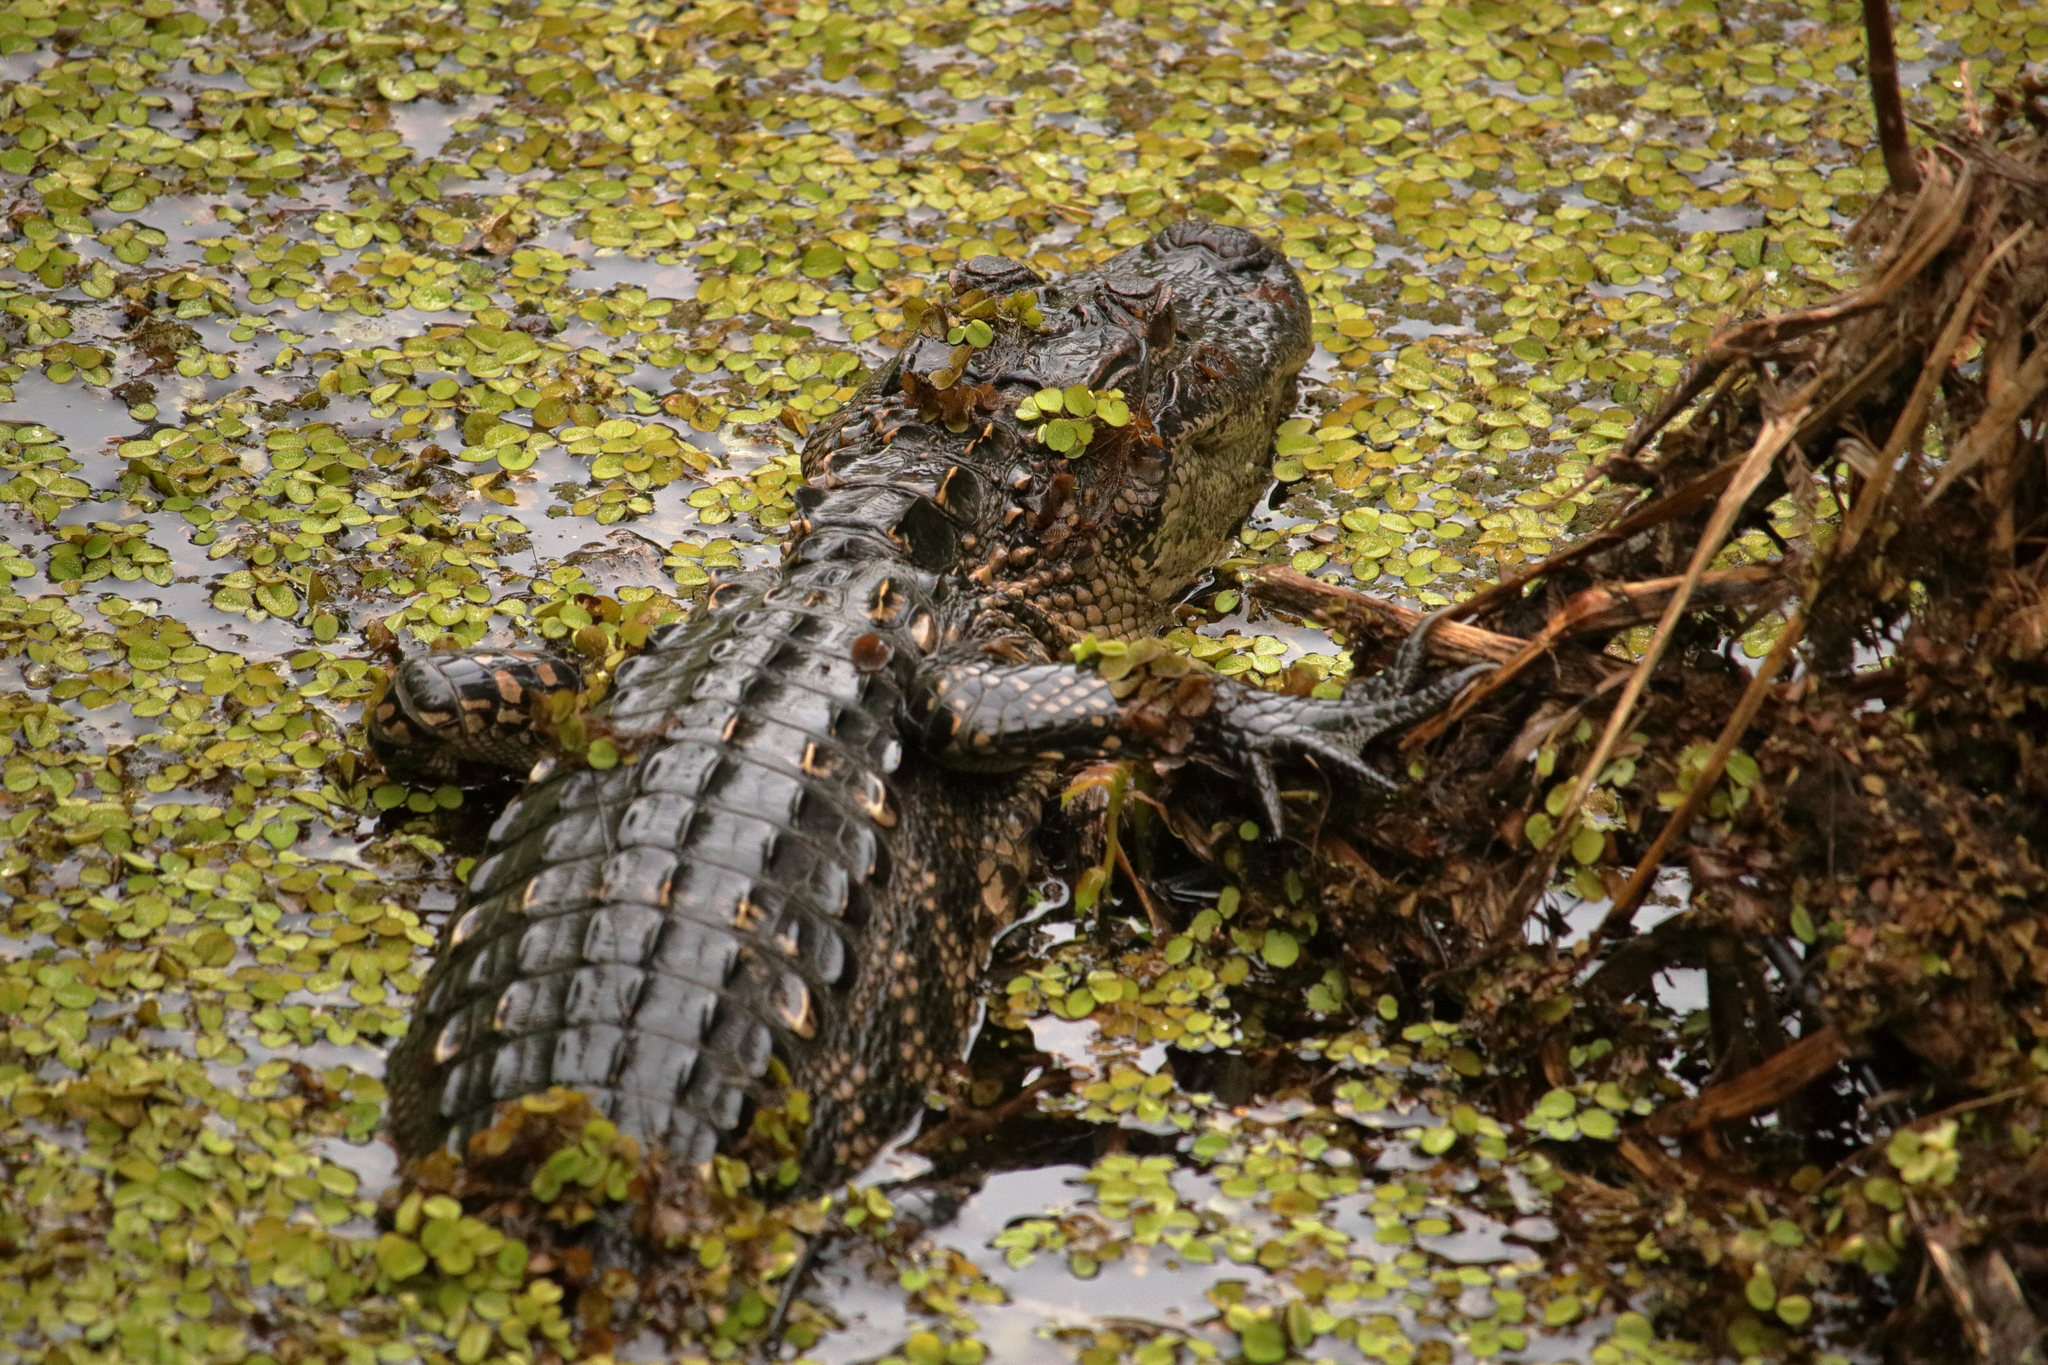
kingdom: Animalia
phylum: Chordata
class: Crocodylia
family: Alligatoridae
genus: Alligator
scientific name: Alligator mississippiensis
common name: American alligator
